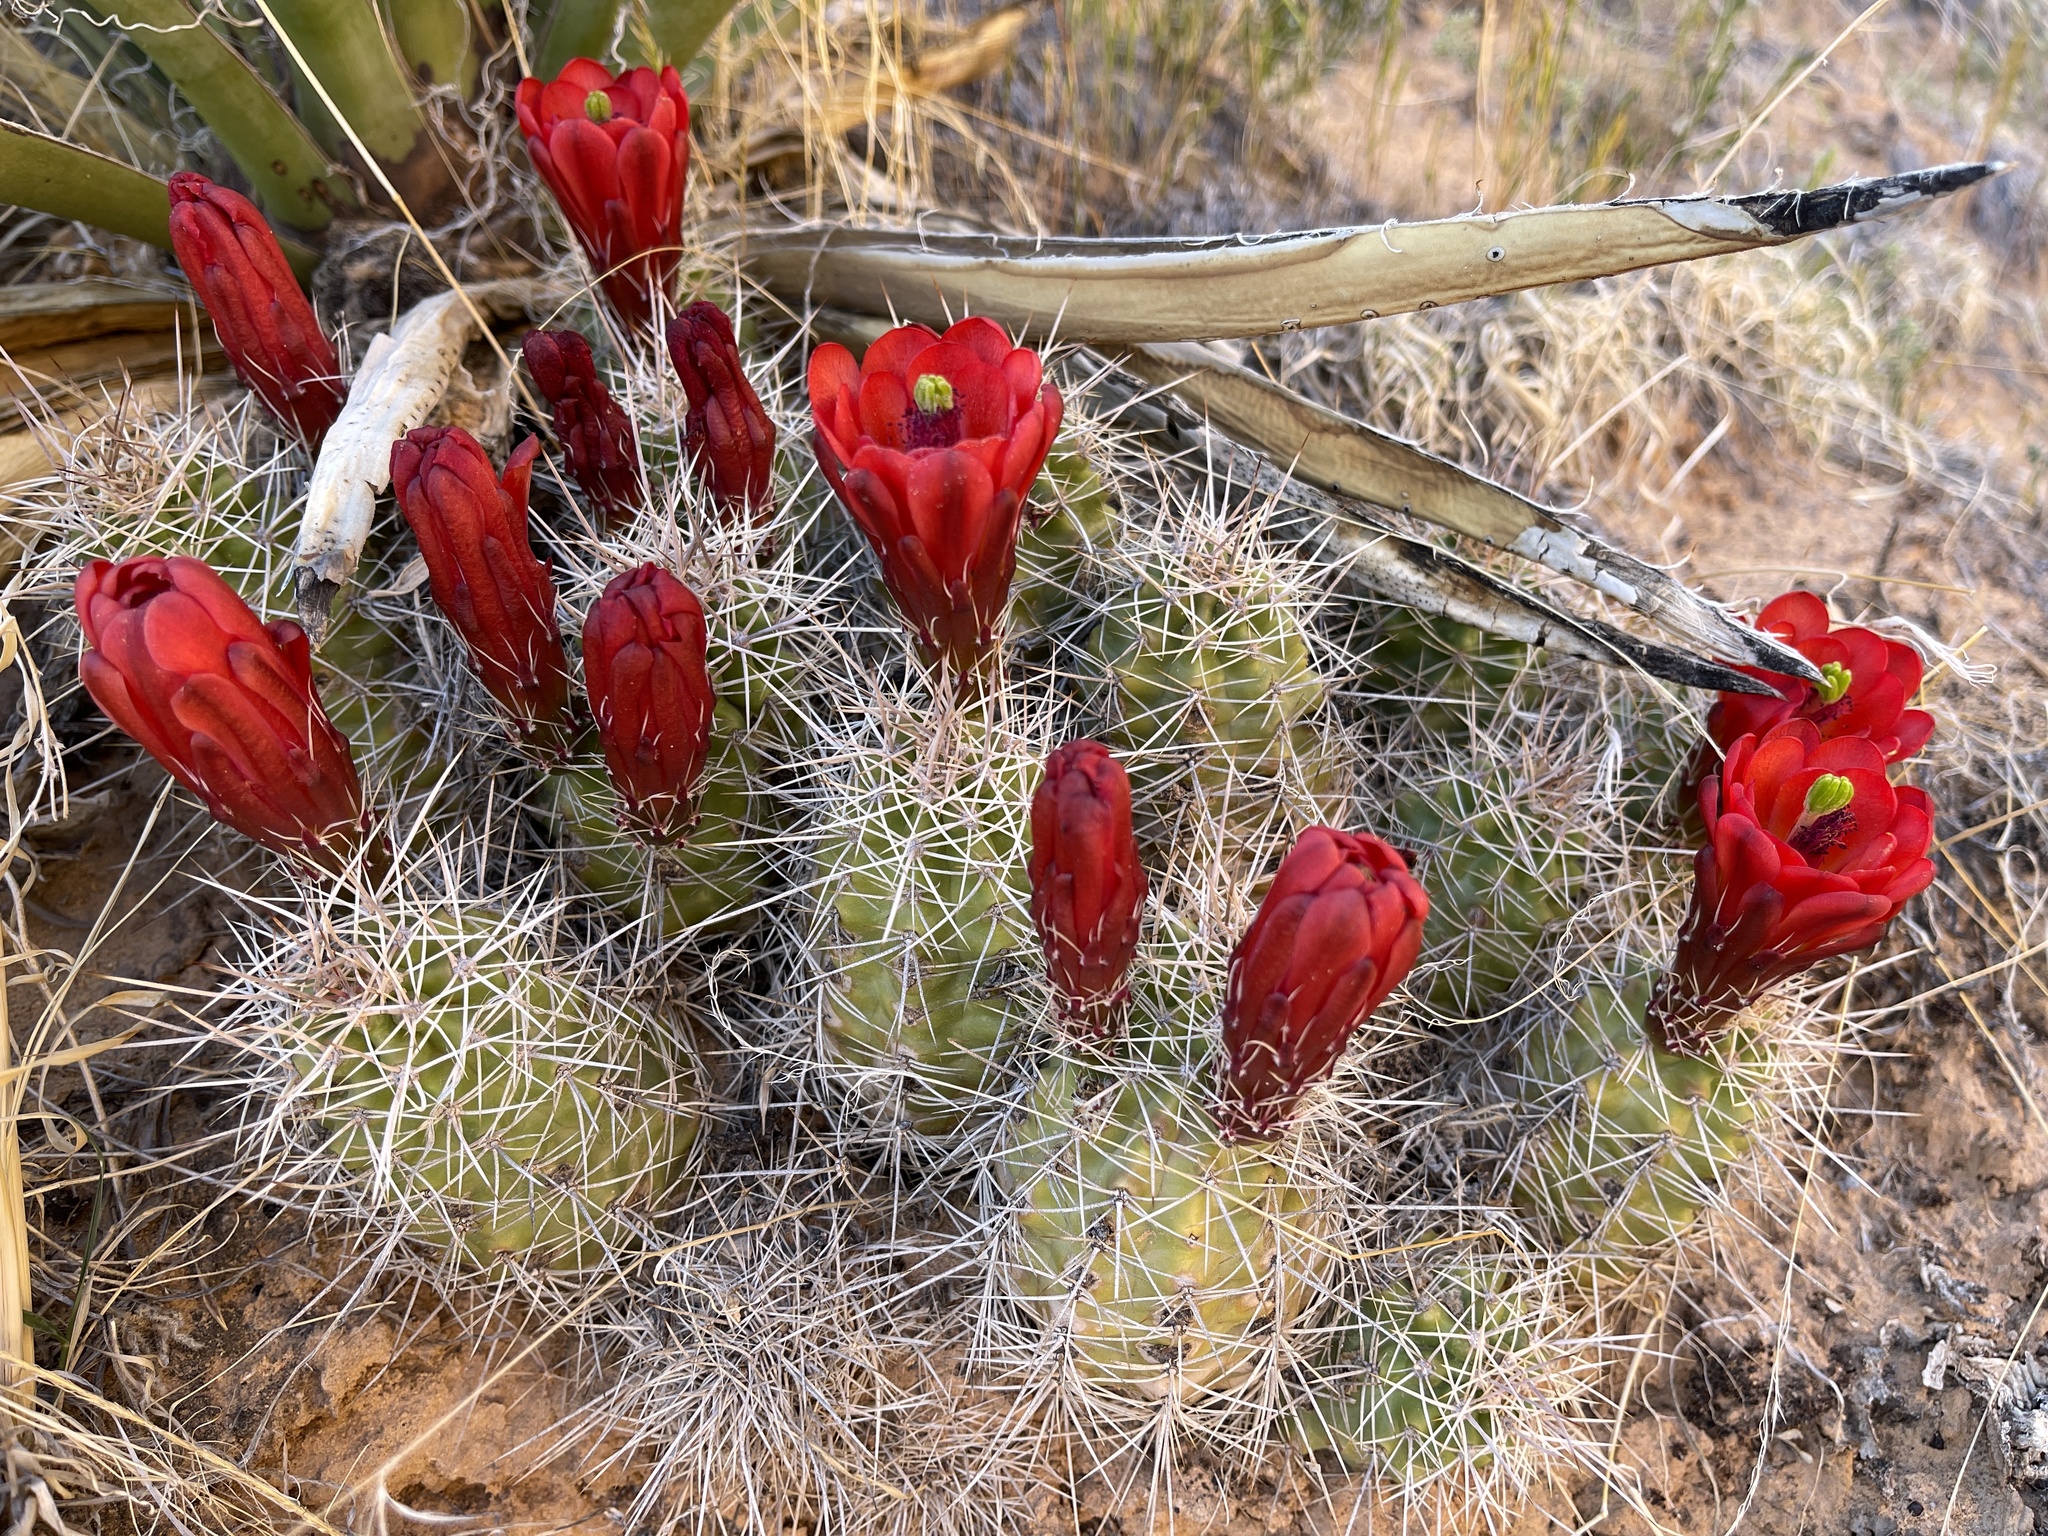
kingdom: Plantae
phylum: Tracheophyta
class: Magnoliopsida
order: Caryophyllales
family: Cactaceae
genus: Echinocereus
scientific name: Echinocereus triglochidiatus
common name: Claretcup hedgehog
